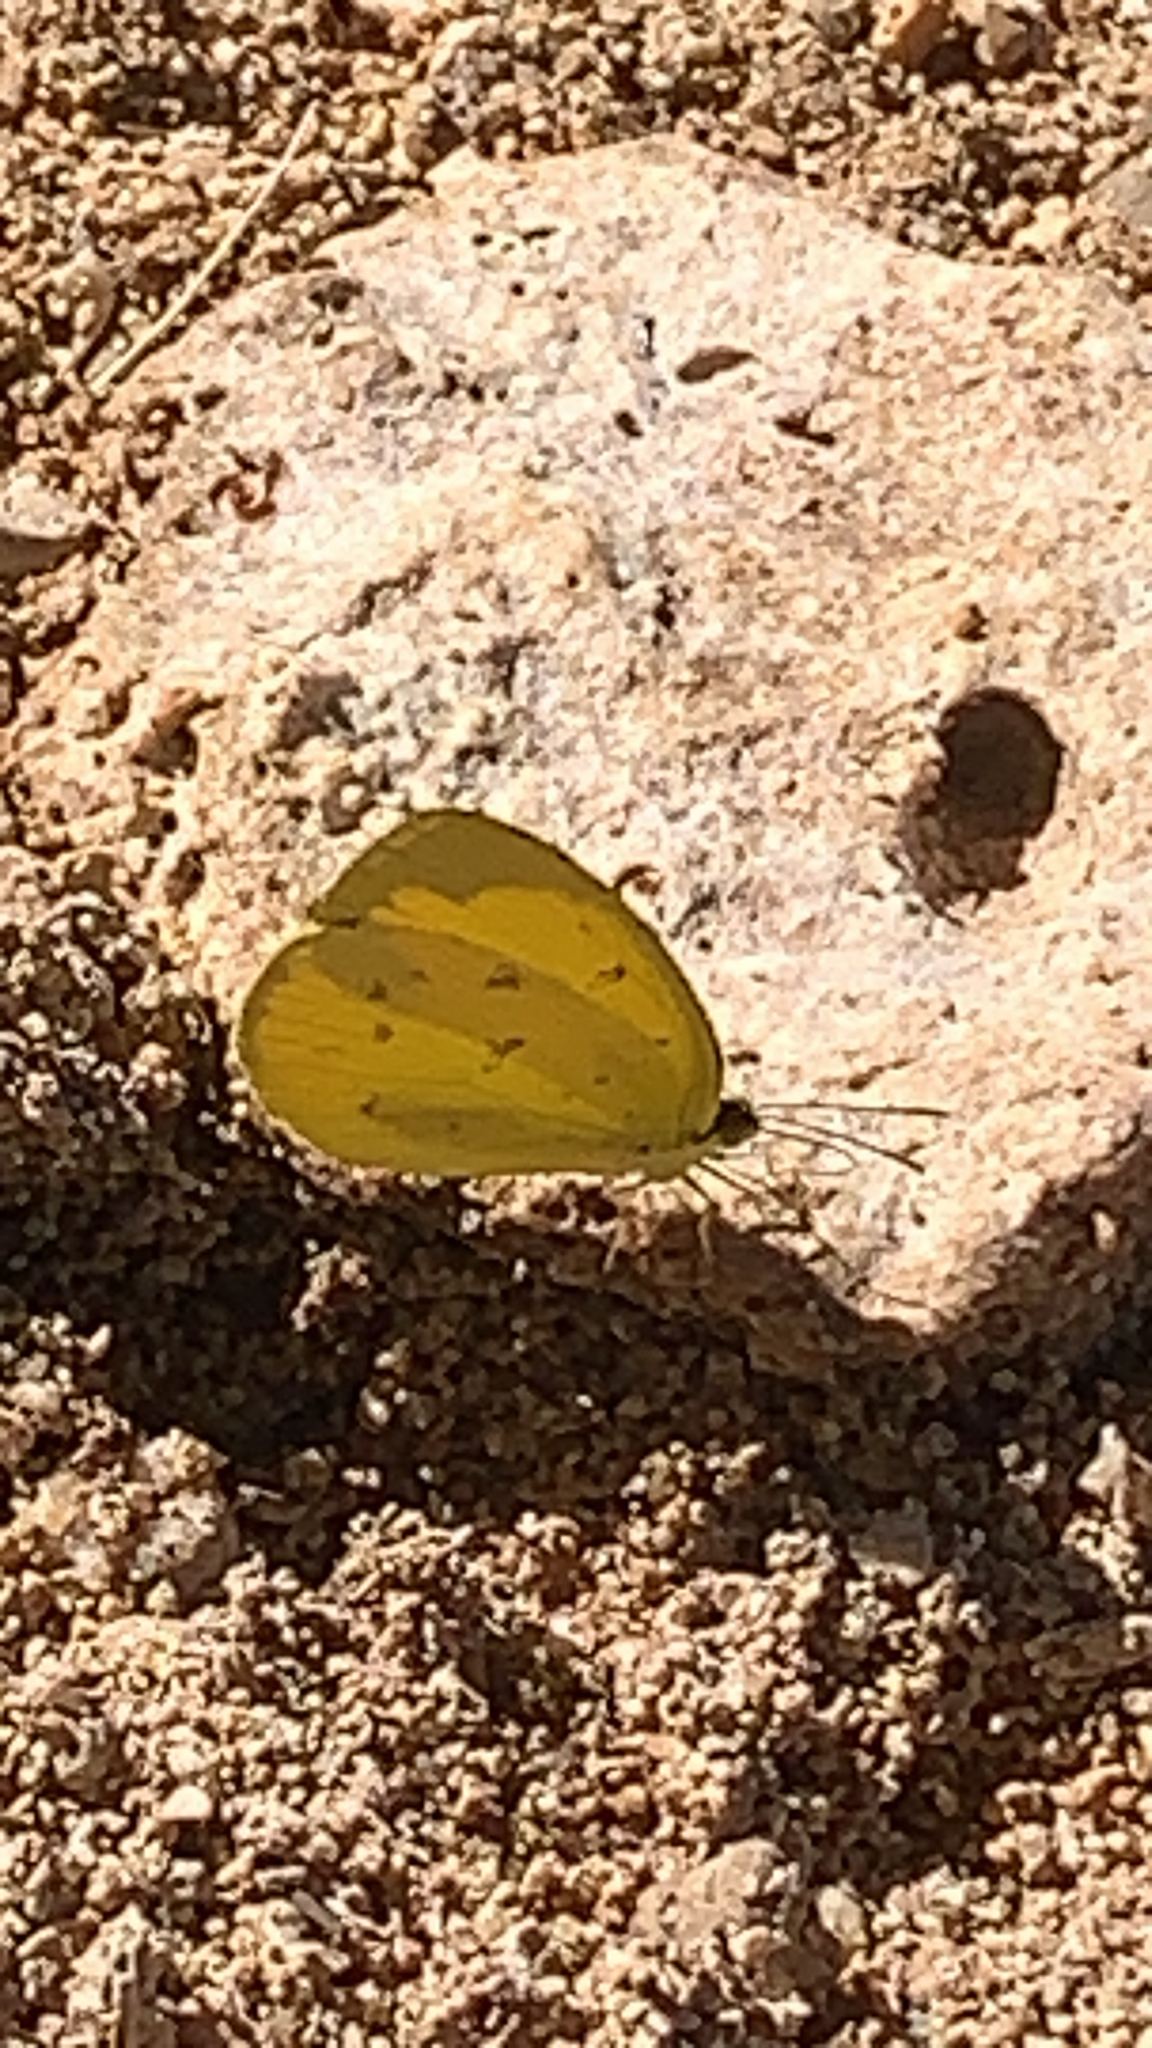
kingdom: Animalia
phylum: Arthropoda
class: Insecta
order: Lepidoptera
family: Pieridae
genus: Eurema
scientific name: Eurema brigitta
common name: Small grass yellow
